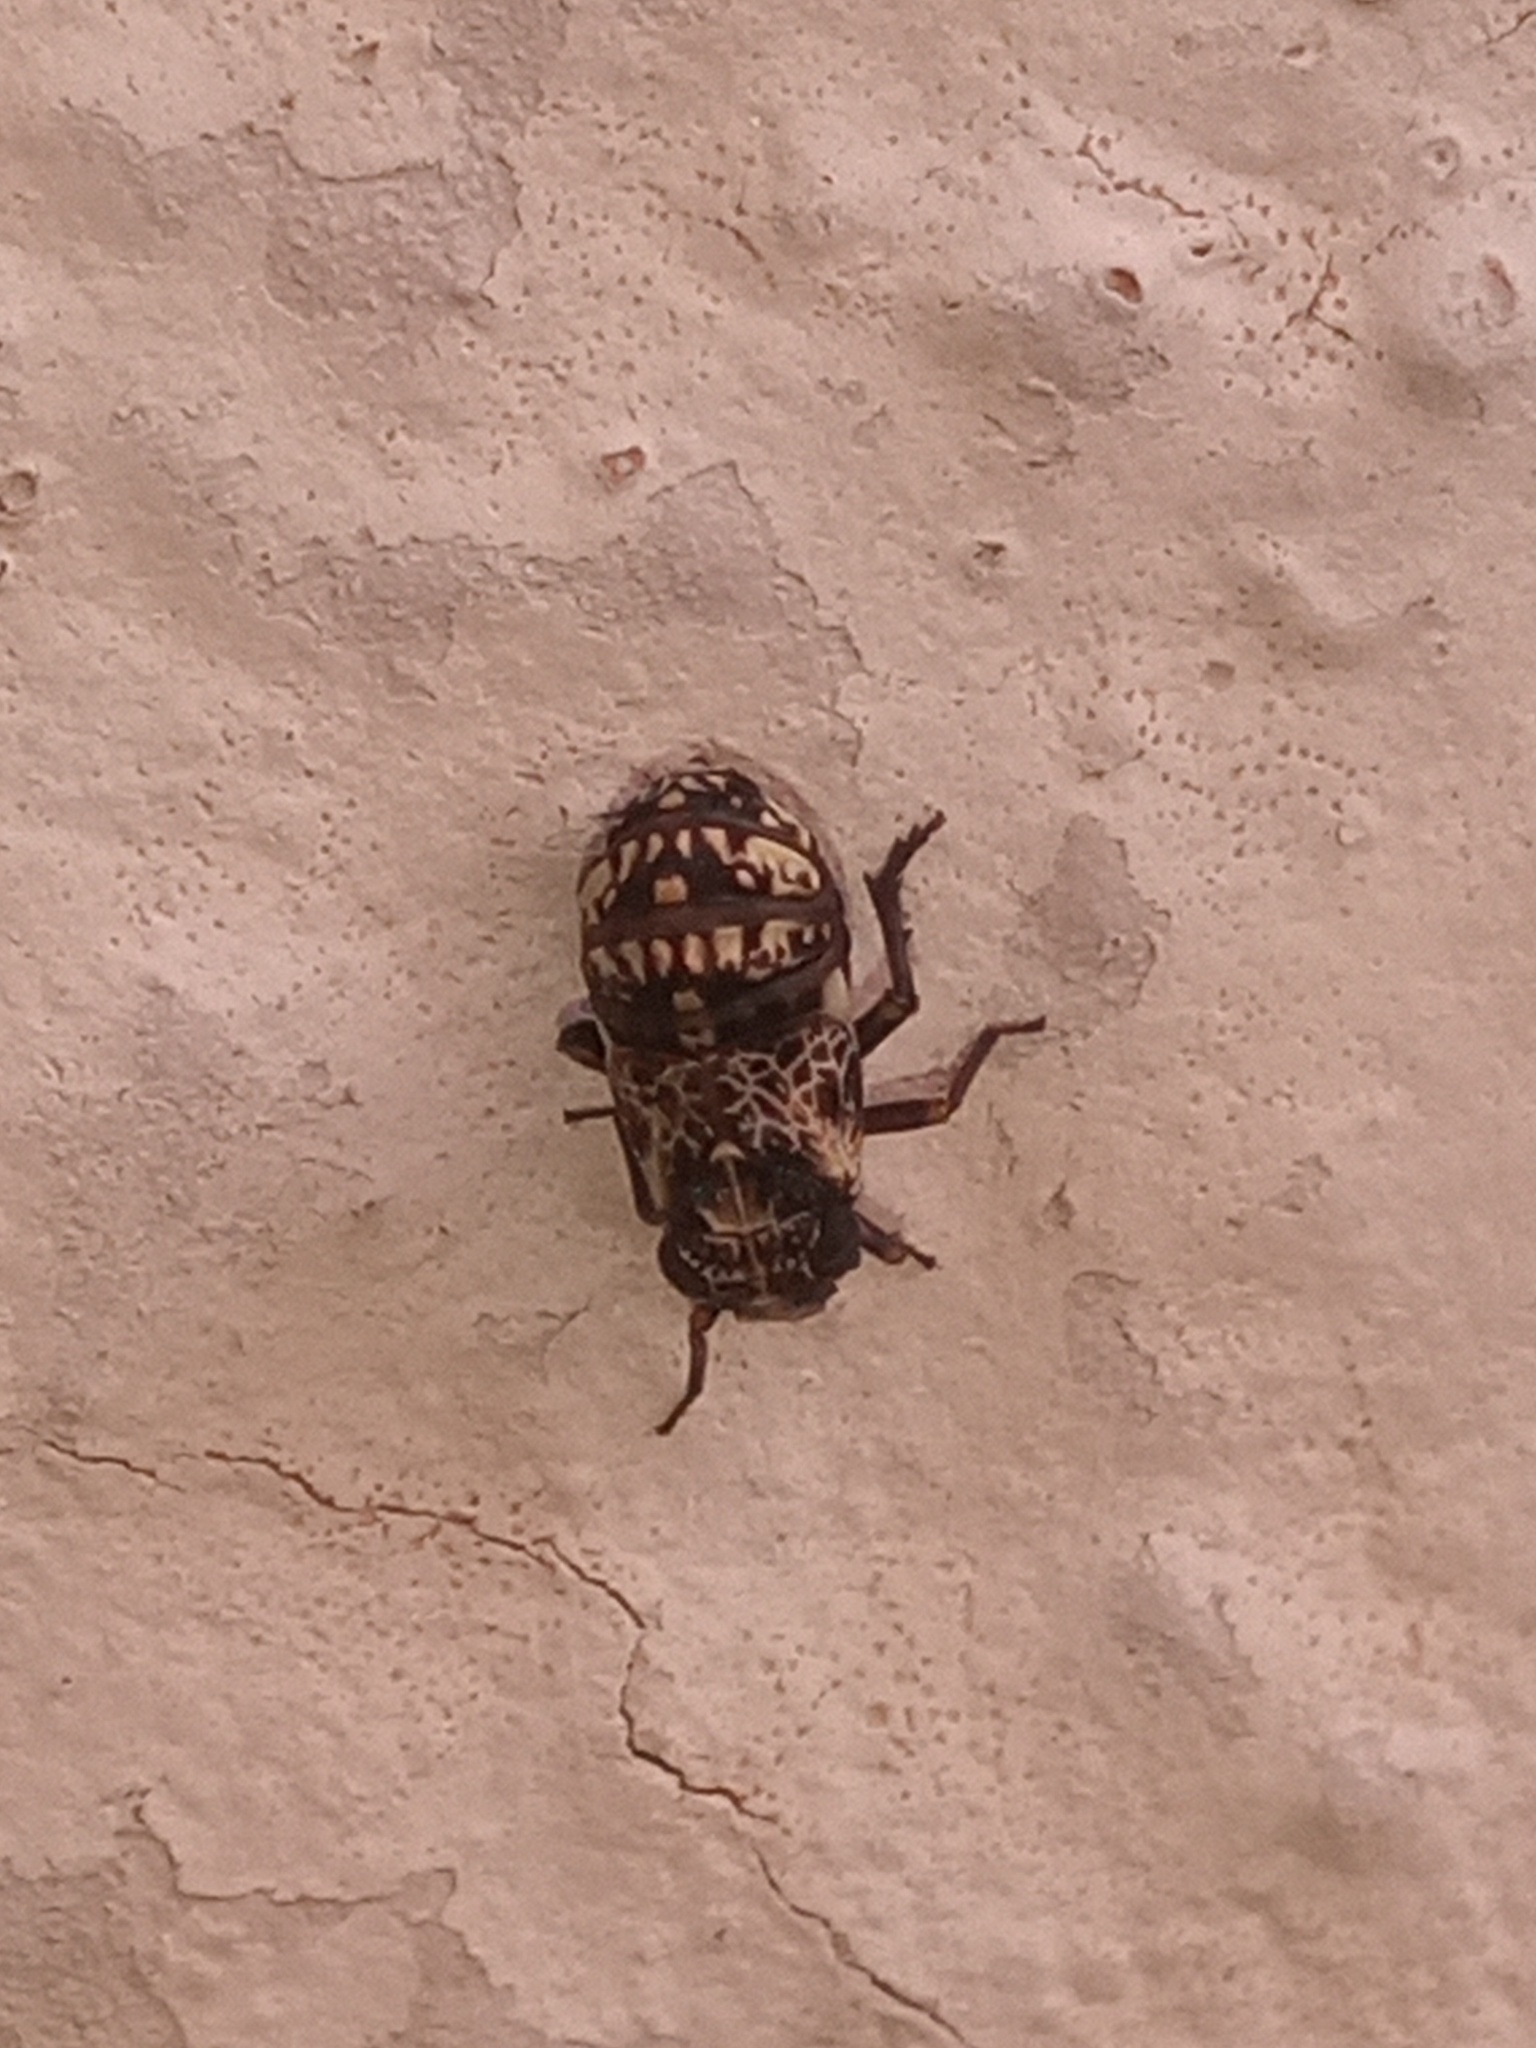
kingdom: Animalia
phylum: Arthropoda
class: Insecta
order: Hemiptera
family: Caliscelidae
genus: Bruchomorpha
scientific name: Bruchomorpha decorata
